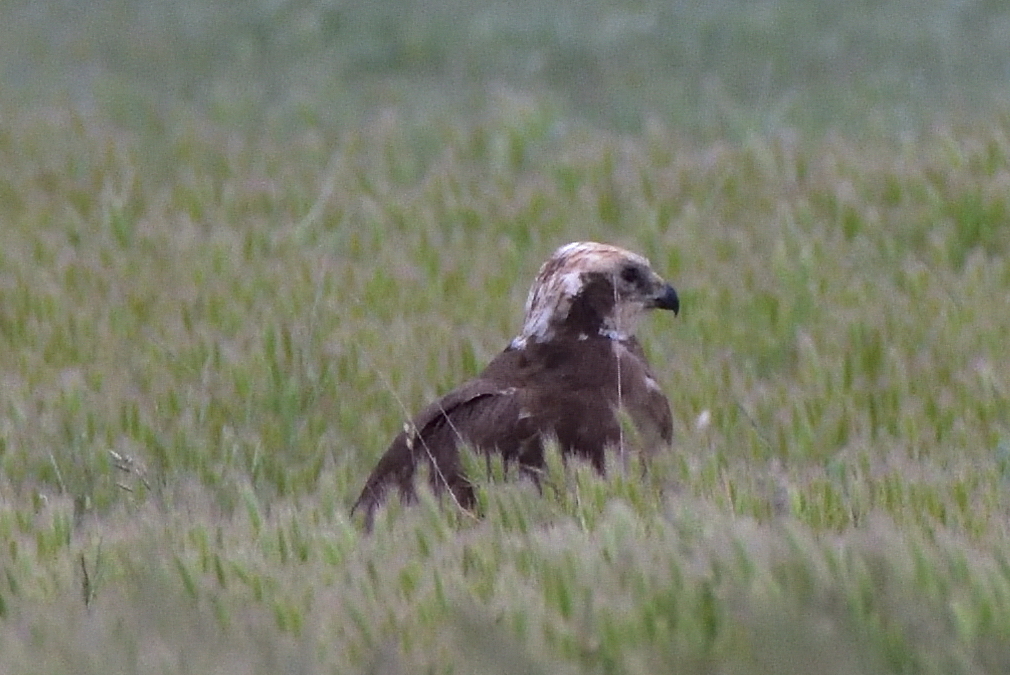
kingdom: Animalia
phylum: Chordata
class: Aves
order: Accipitriformes
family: Accipitridae
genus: Circus
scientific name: Circus aeruginosus
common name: Western marsh harrier
